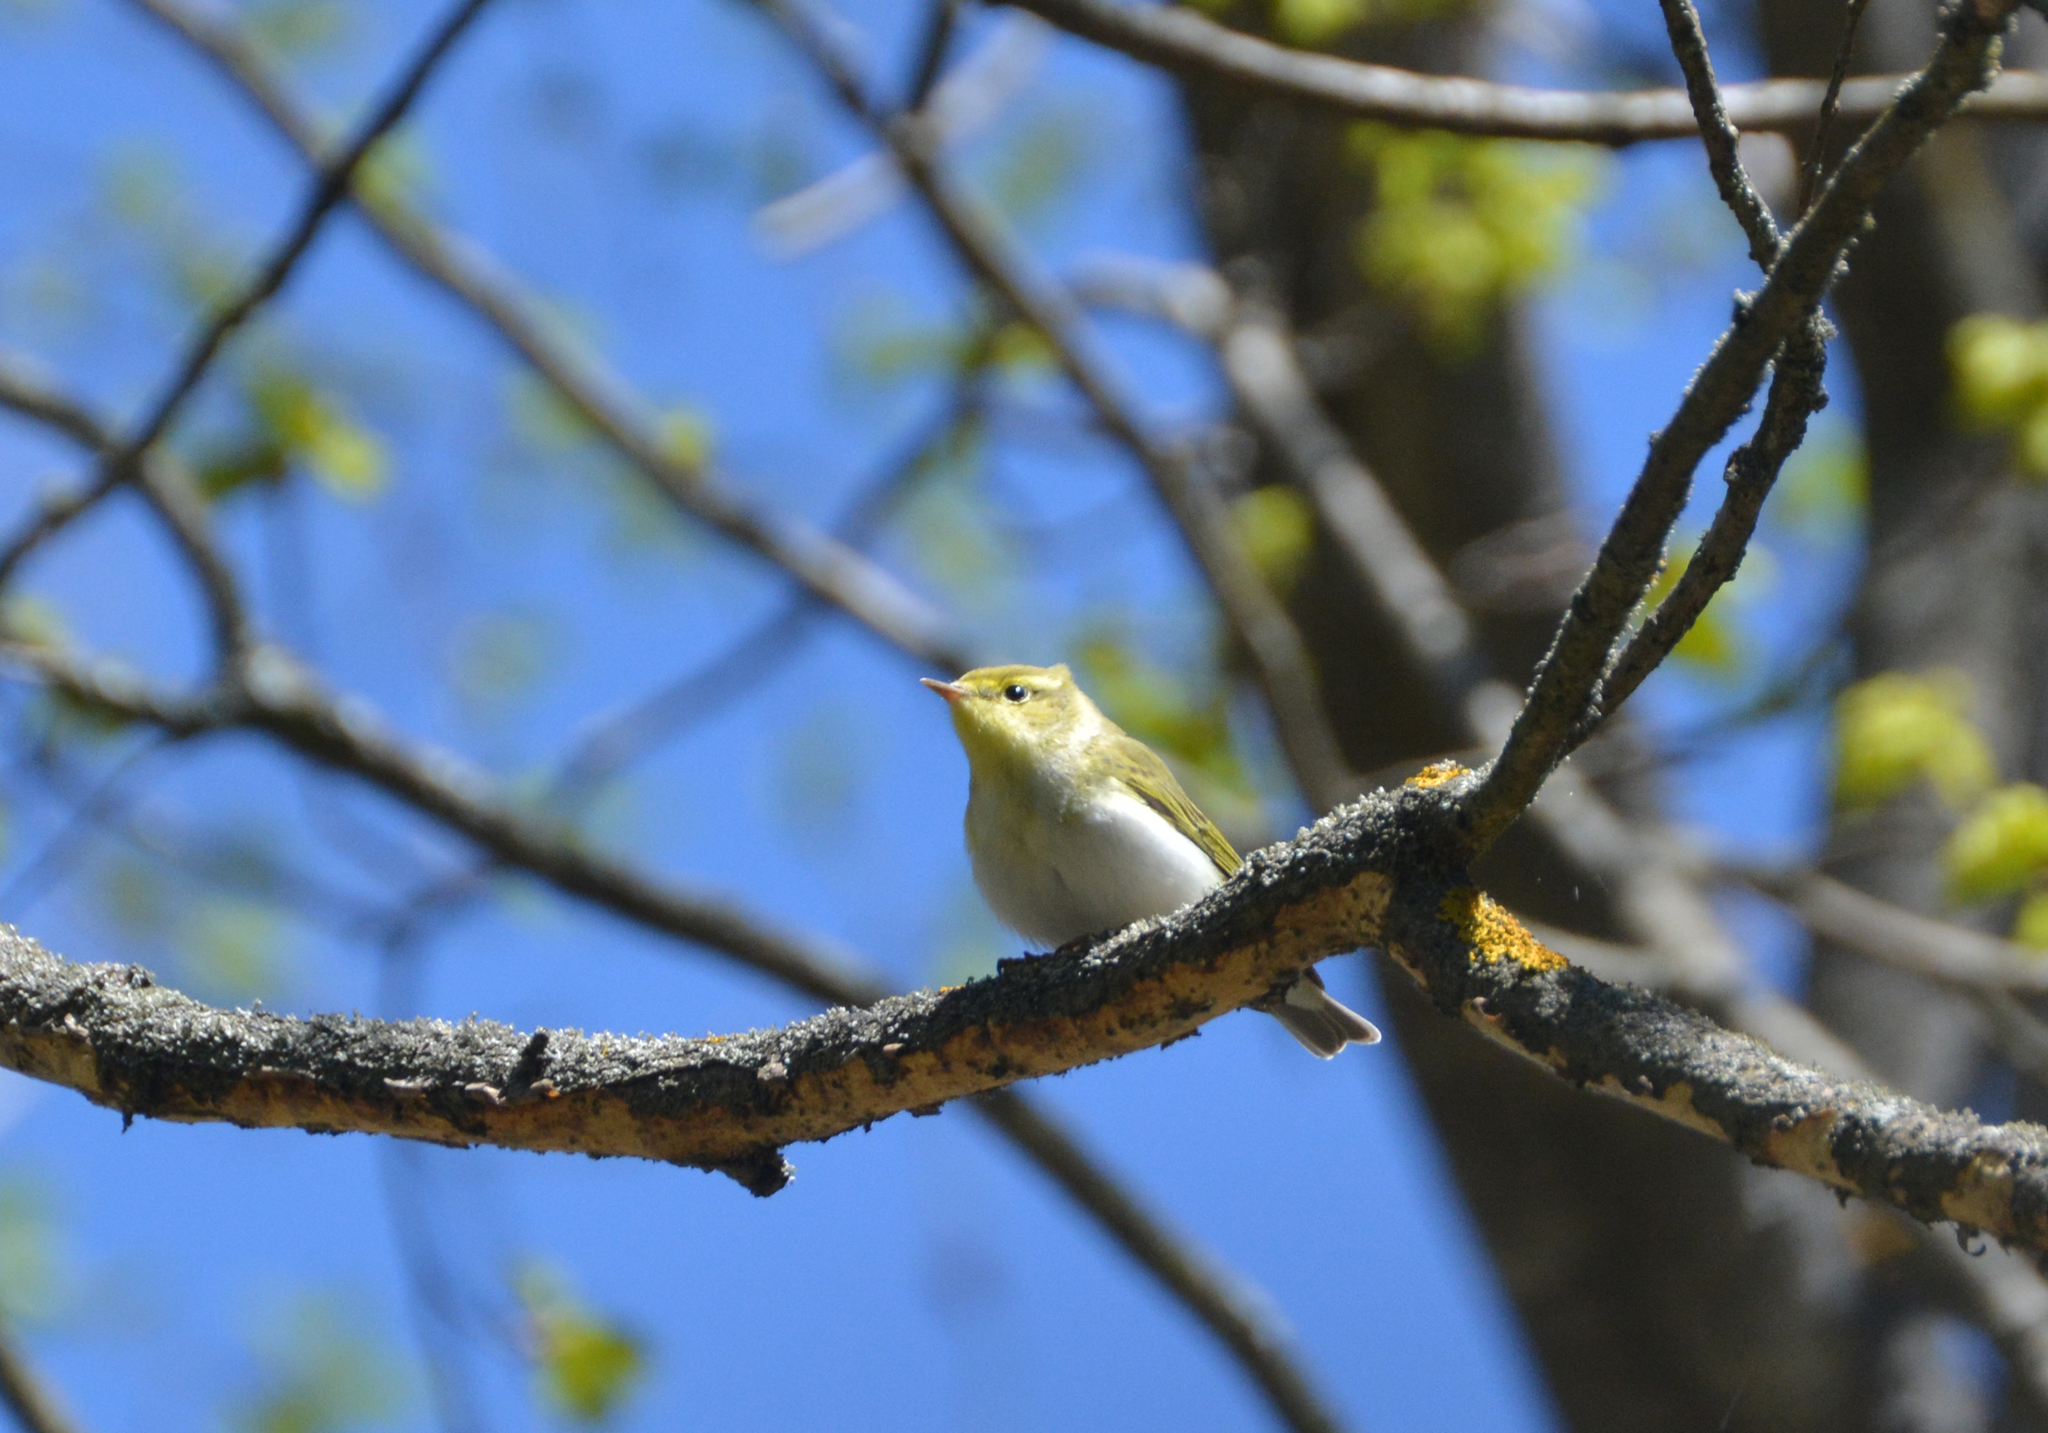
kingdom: Animalia
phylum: Chordata
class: Aves
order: Passeriformes
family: Phylloscopidae
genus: Phylloscopus
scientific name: Phylloscopus sibillatrix
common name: Wood warbler
